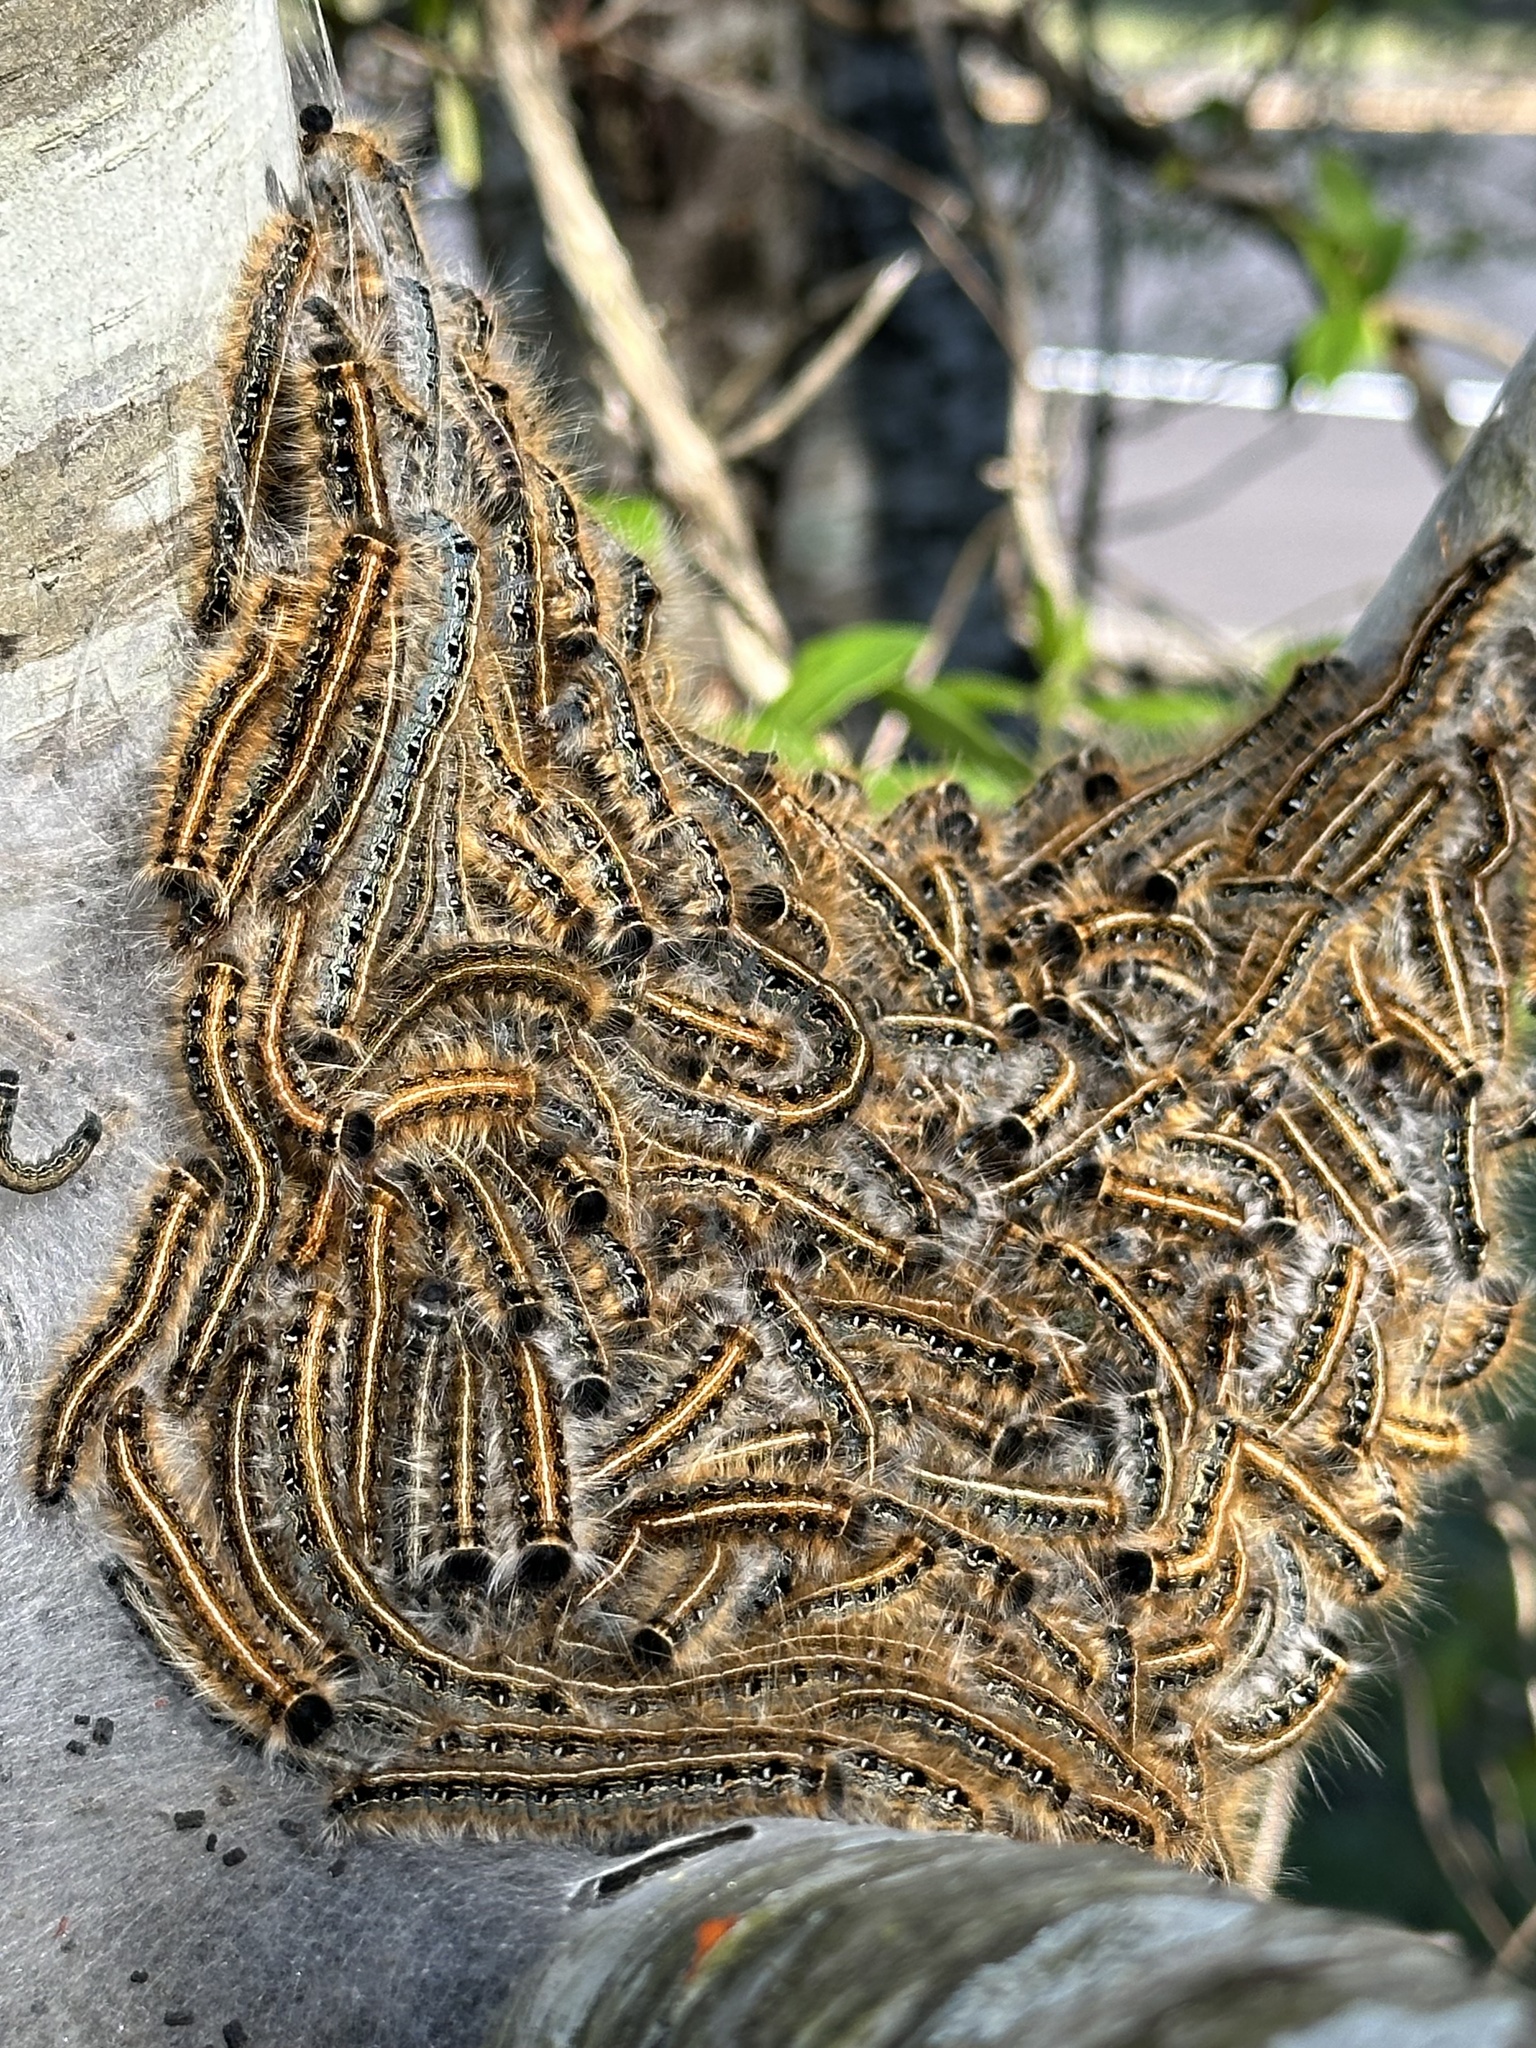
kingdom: Animalia
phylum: Arthropoda
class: Insecta
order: Lepidoptera
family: Lasiocampidae
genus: Malacosoma
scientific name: Malacosoma americana
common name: Eastern tent caterpillar moth
